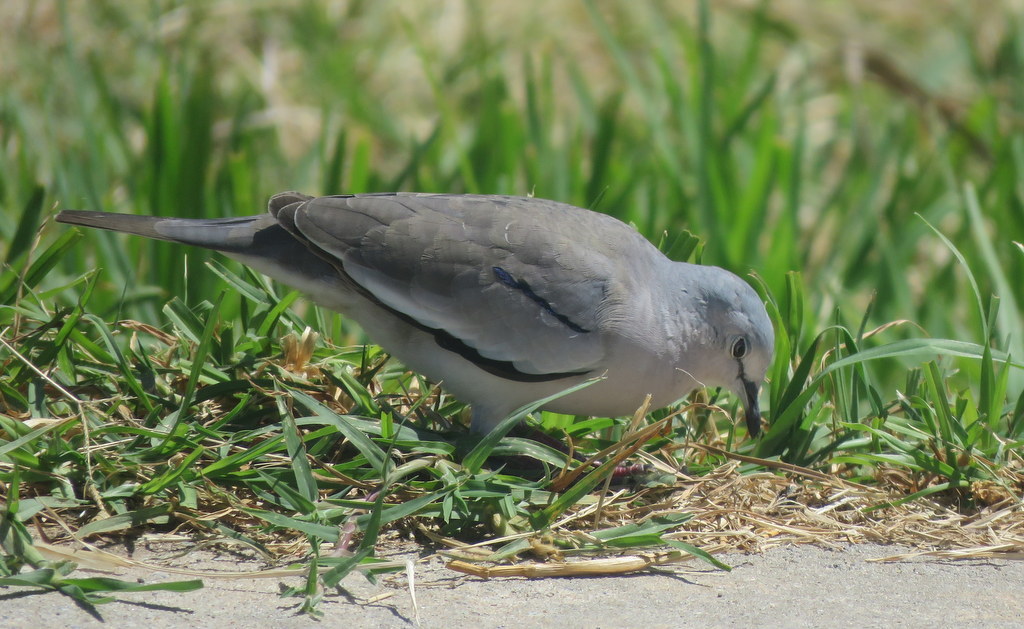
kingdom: Animalia
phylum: Chordata
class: Aves
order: Columbiformes
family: Columbidae
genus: Columbina
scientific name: Columbina picui
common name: Picui ground dove
